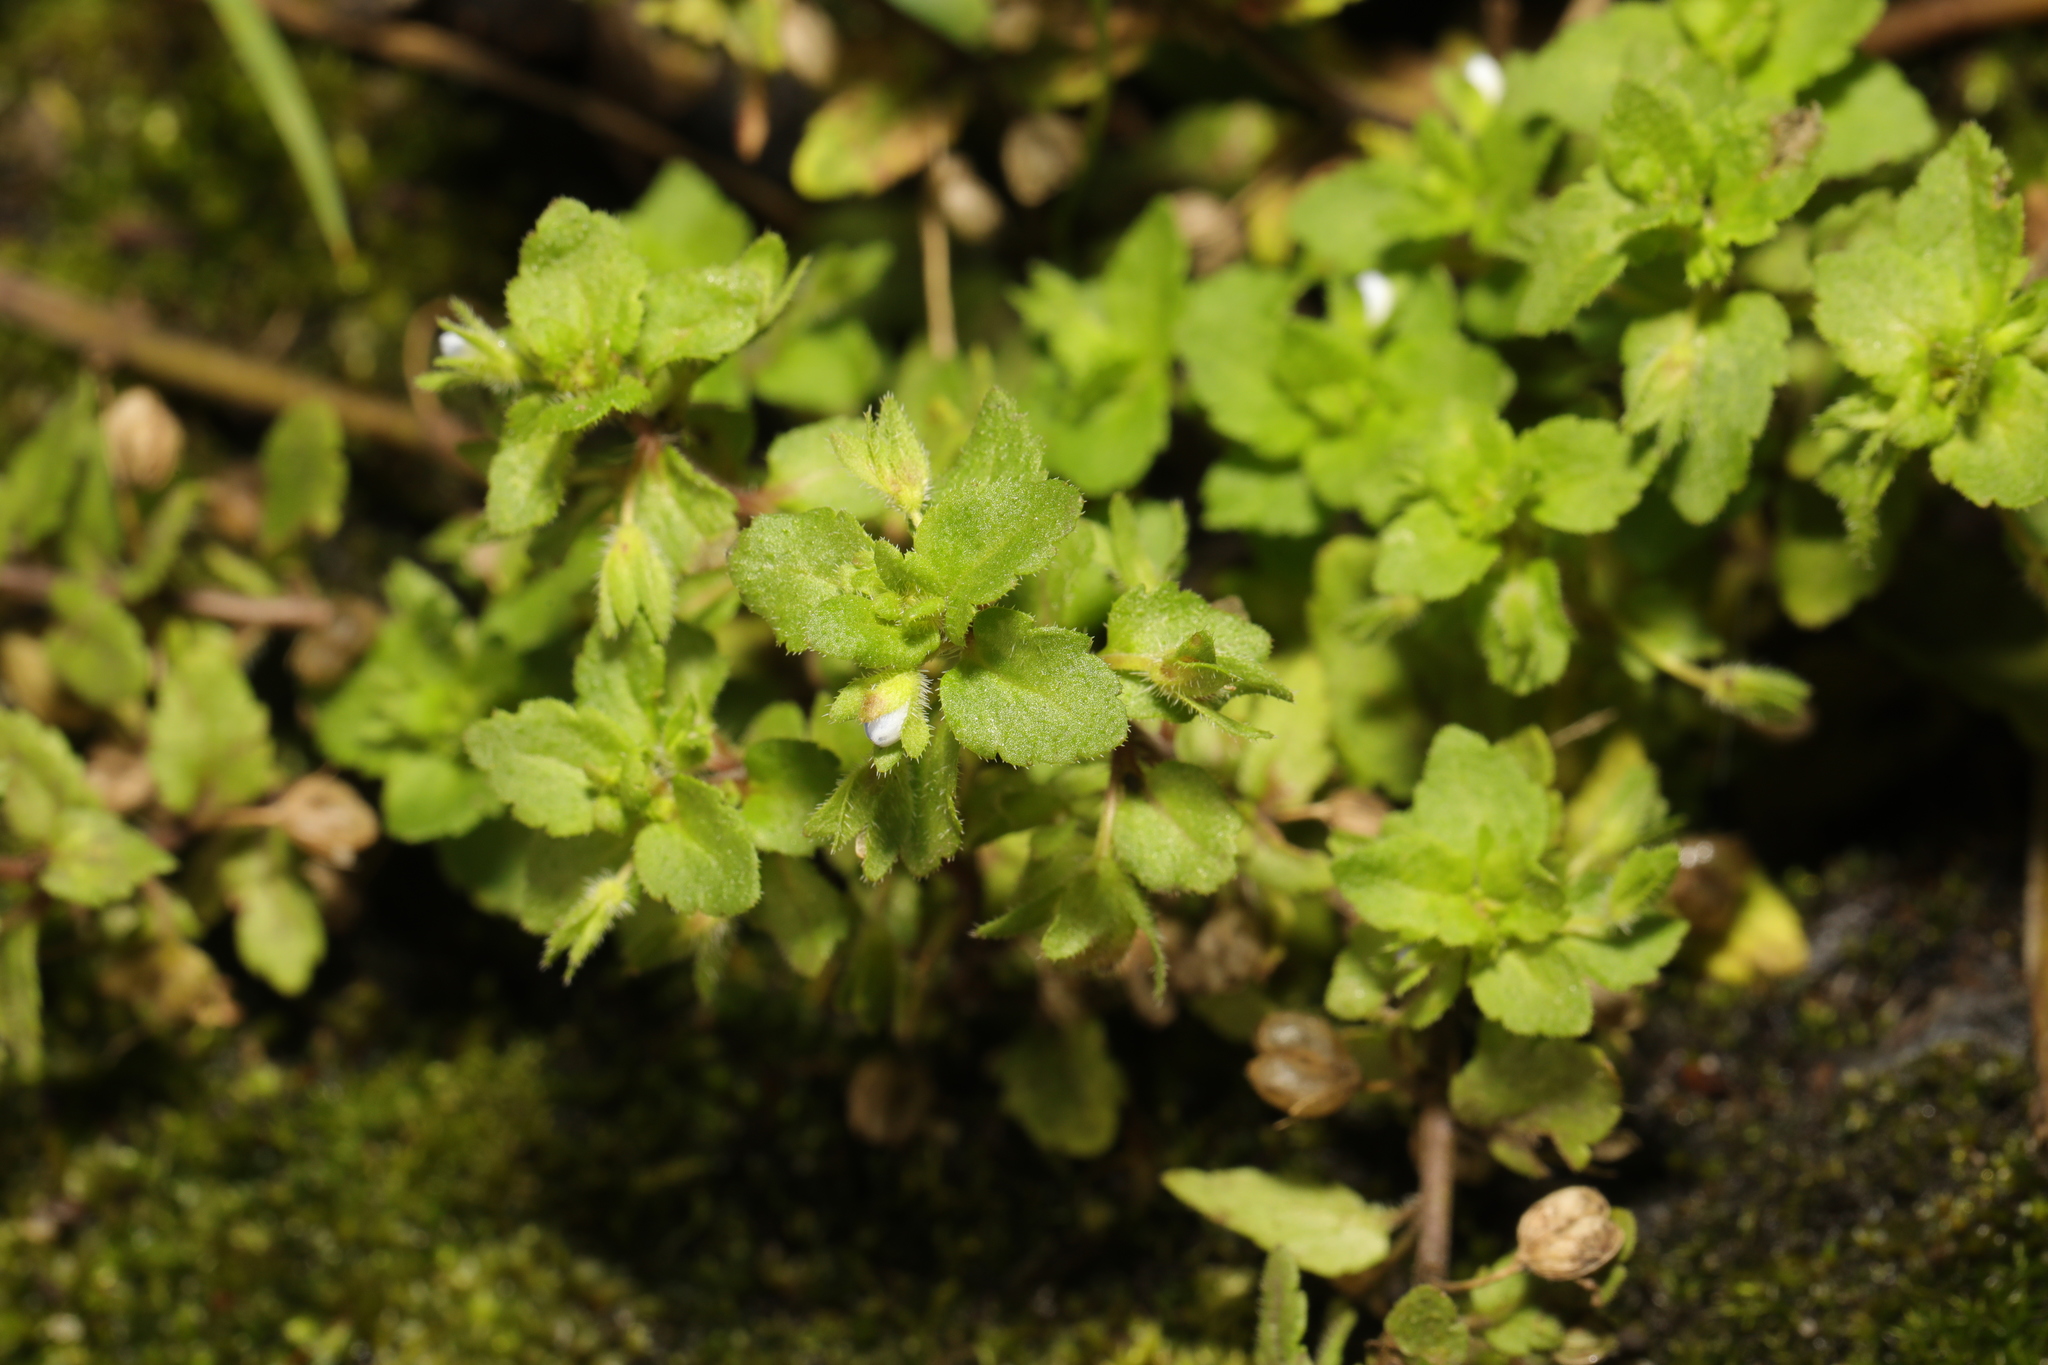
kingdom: Plantae
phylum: Tracheophyta
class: Magnoliopsida
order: Lamiales
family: Plantaginaceae
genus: Veronica
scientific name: Veronica agrestis
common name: Green field-speedwell
